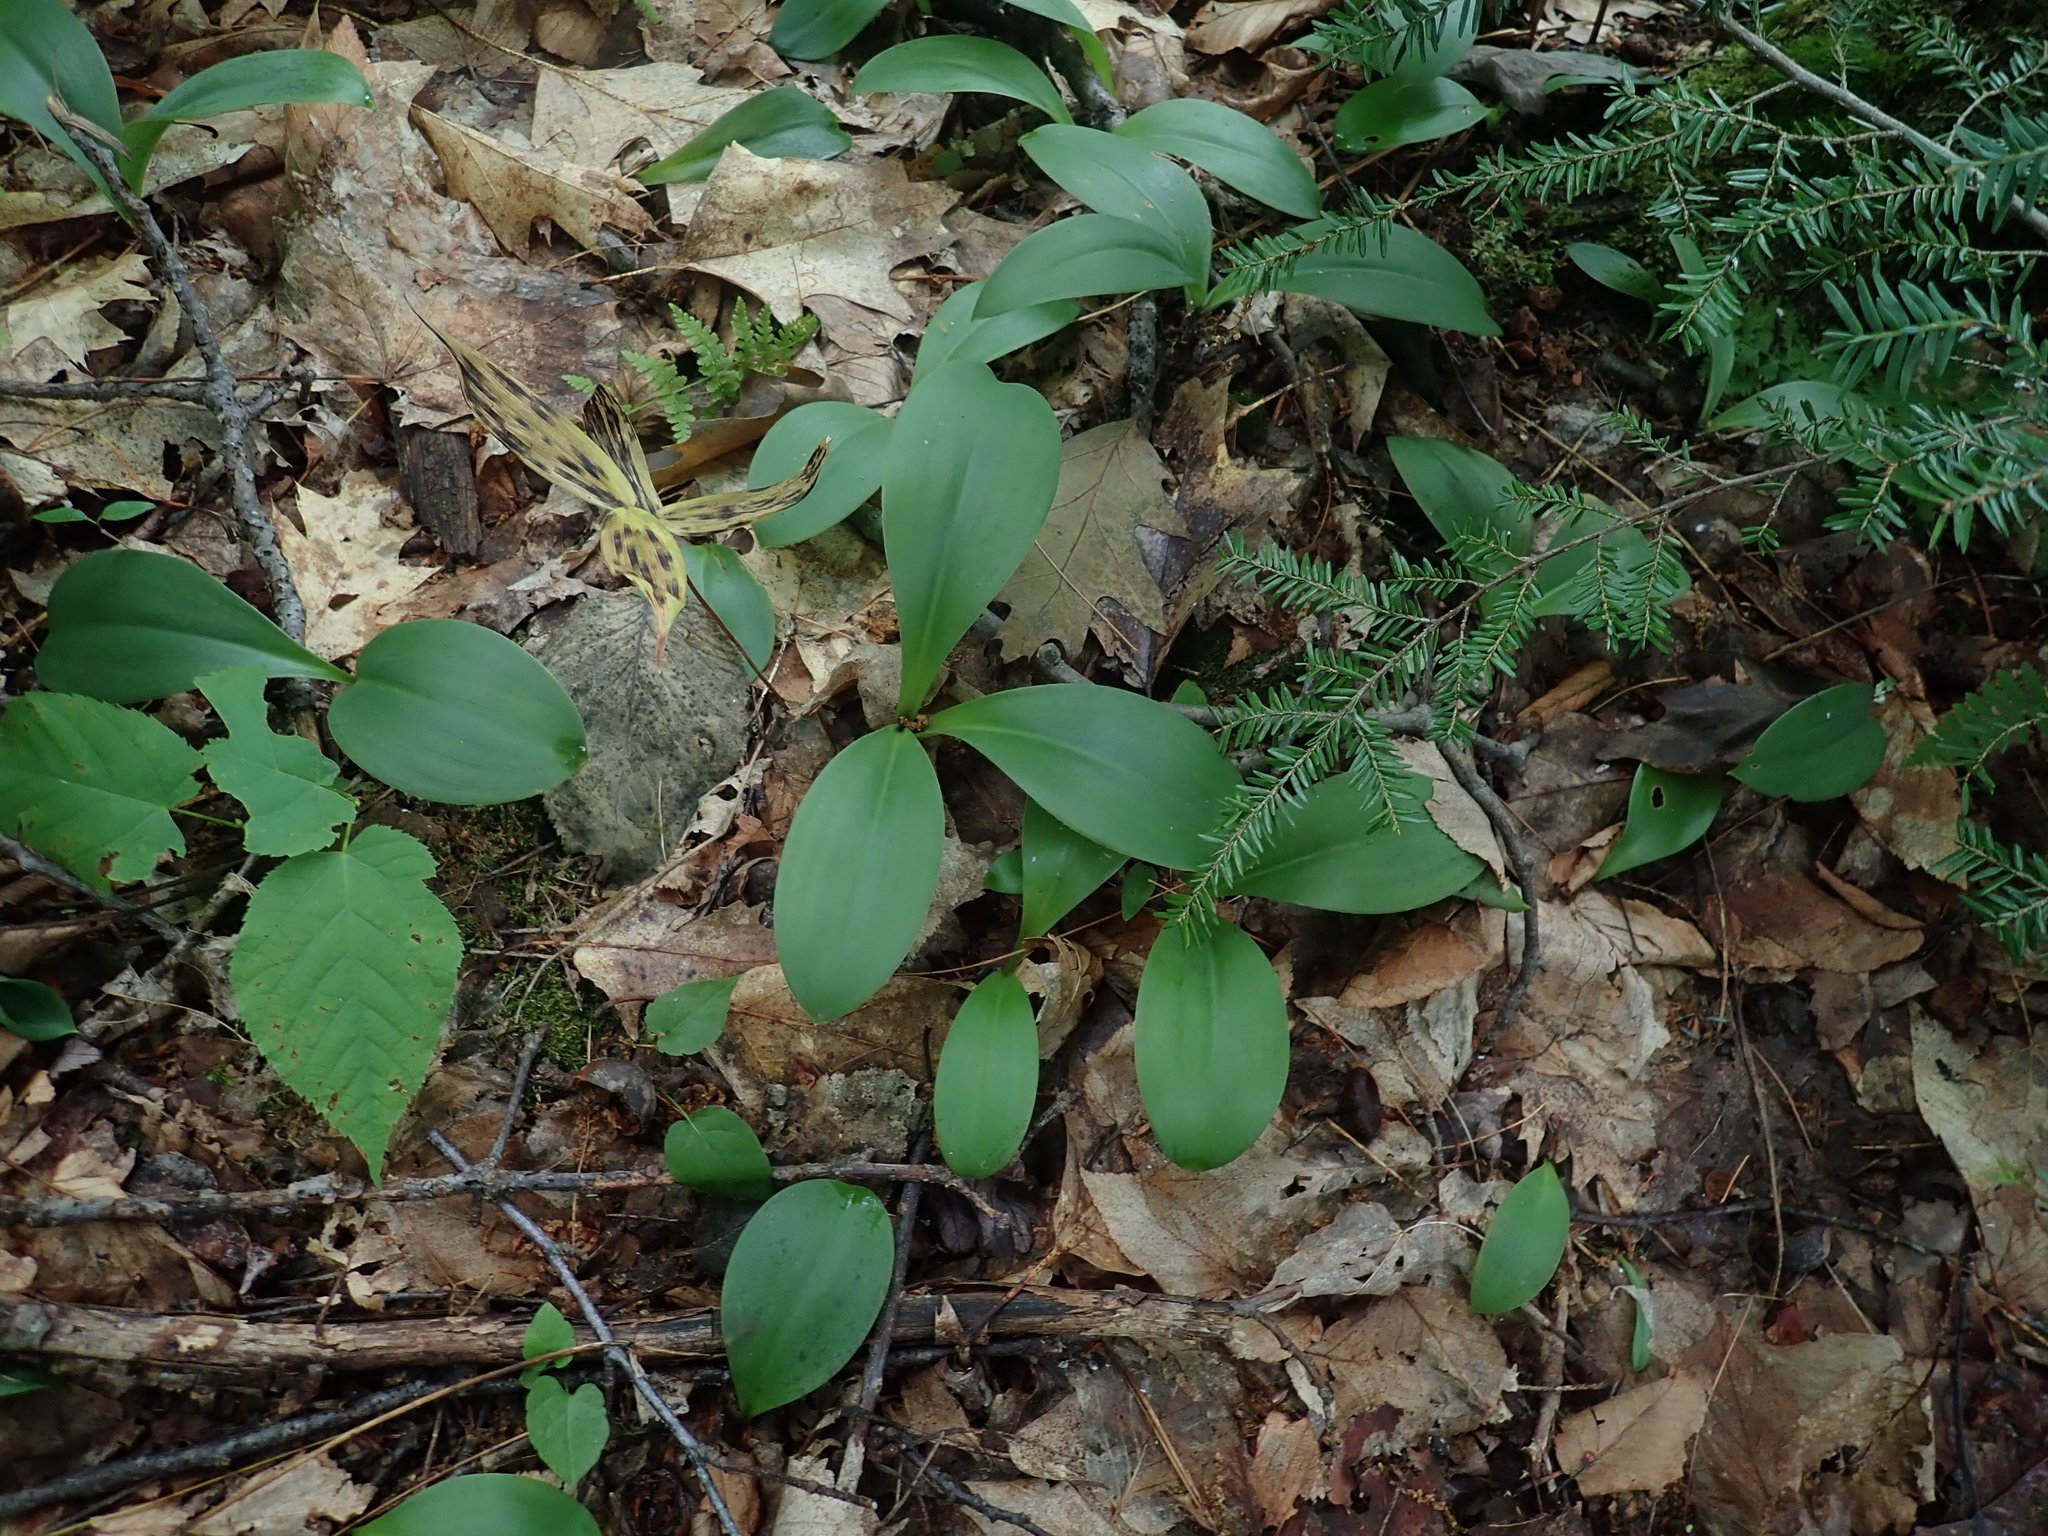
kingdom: Plantae
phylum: Tracheophyta
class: Liliopsida
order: Liliales
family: Liliaceae
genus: Clintonia
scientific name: Clintonia borealis
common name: Yellow clintonia
